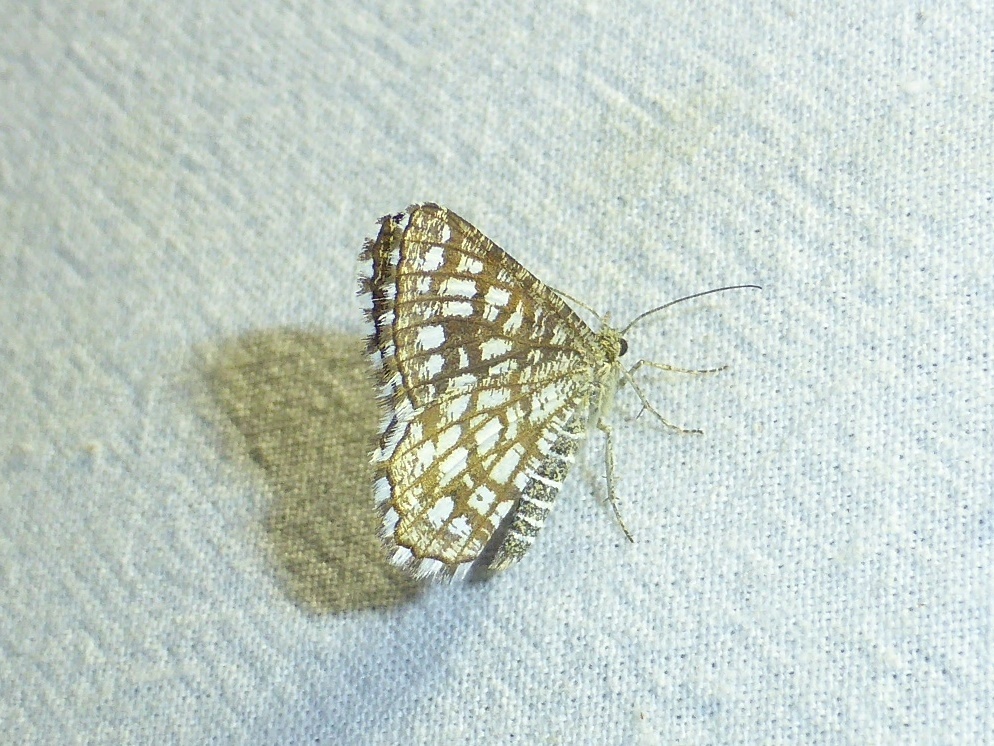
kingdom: Animalia
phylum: Arthropoda
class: Insecta
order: Lepidoptera
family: Geometridae
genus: Chiasmia
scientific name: Chiasmia clathrata
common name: Latticed heath
